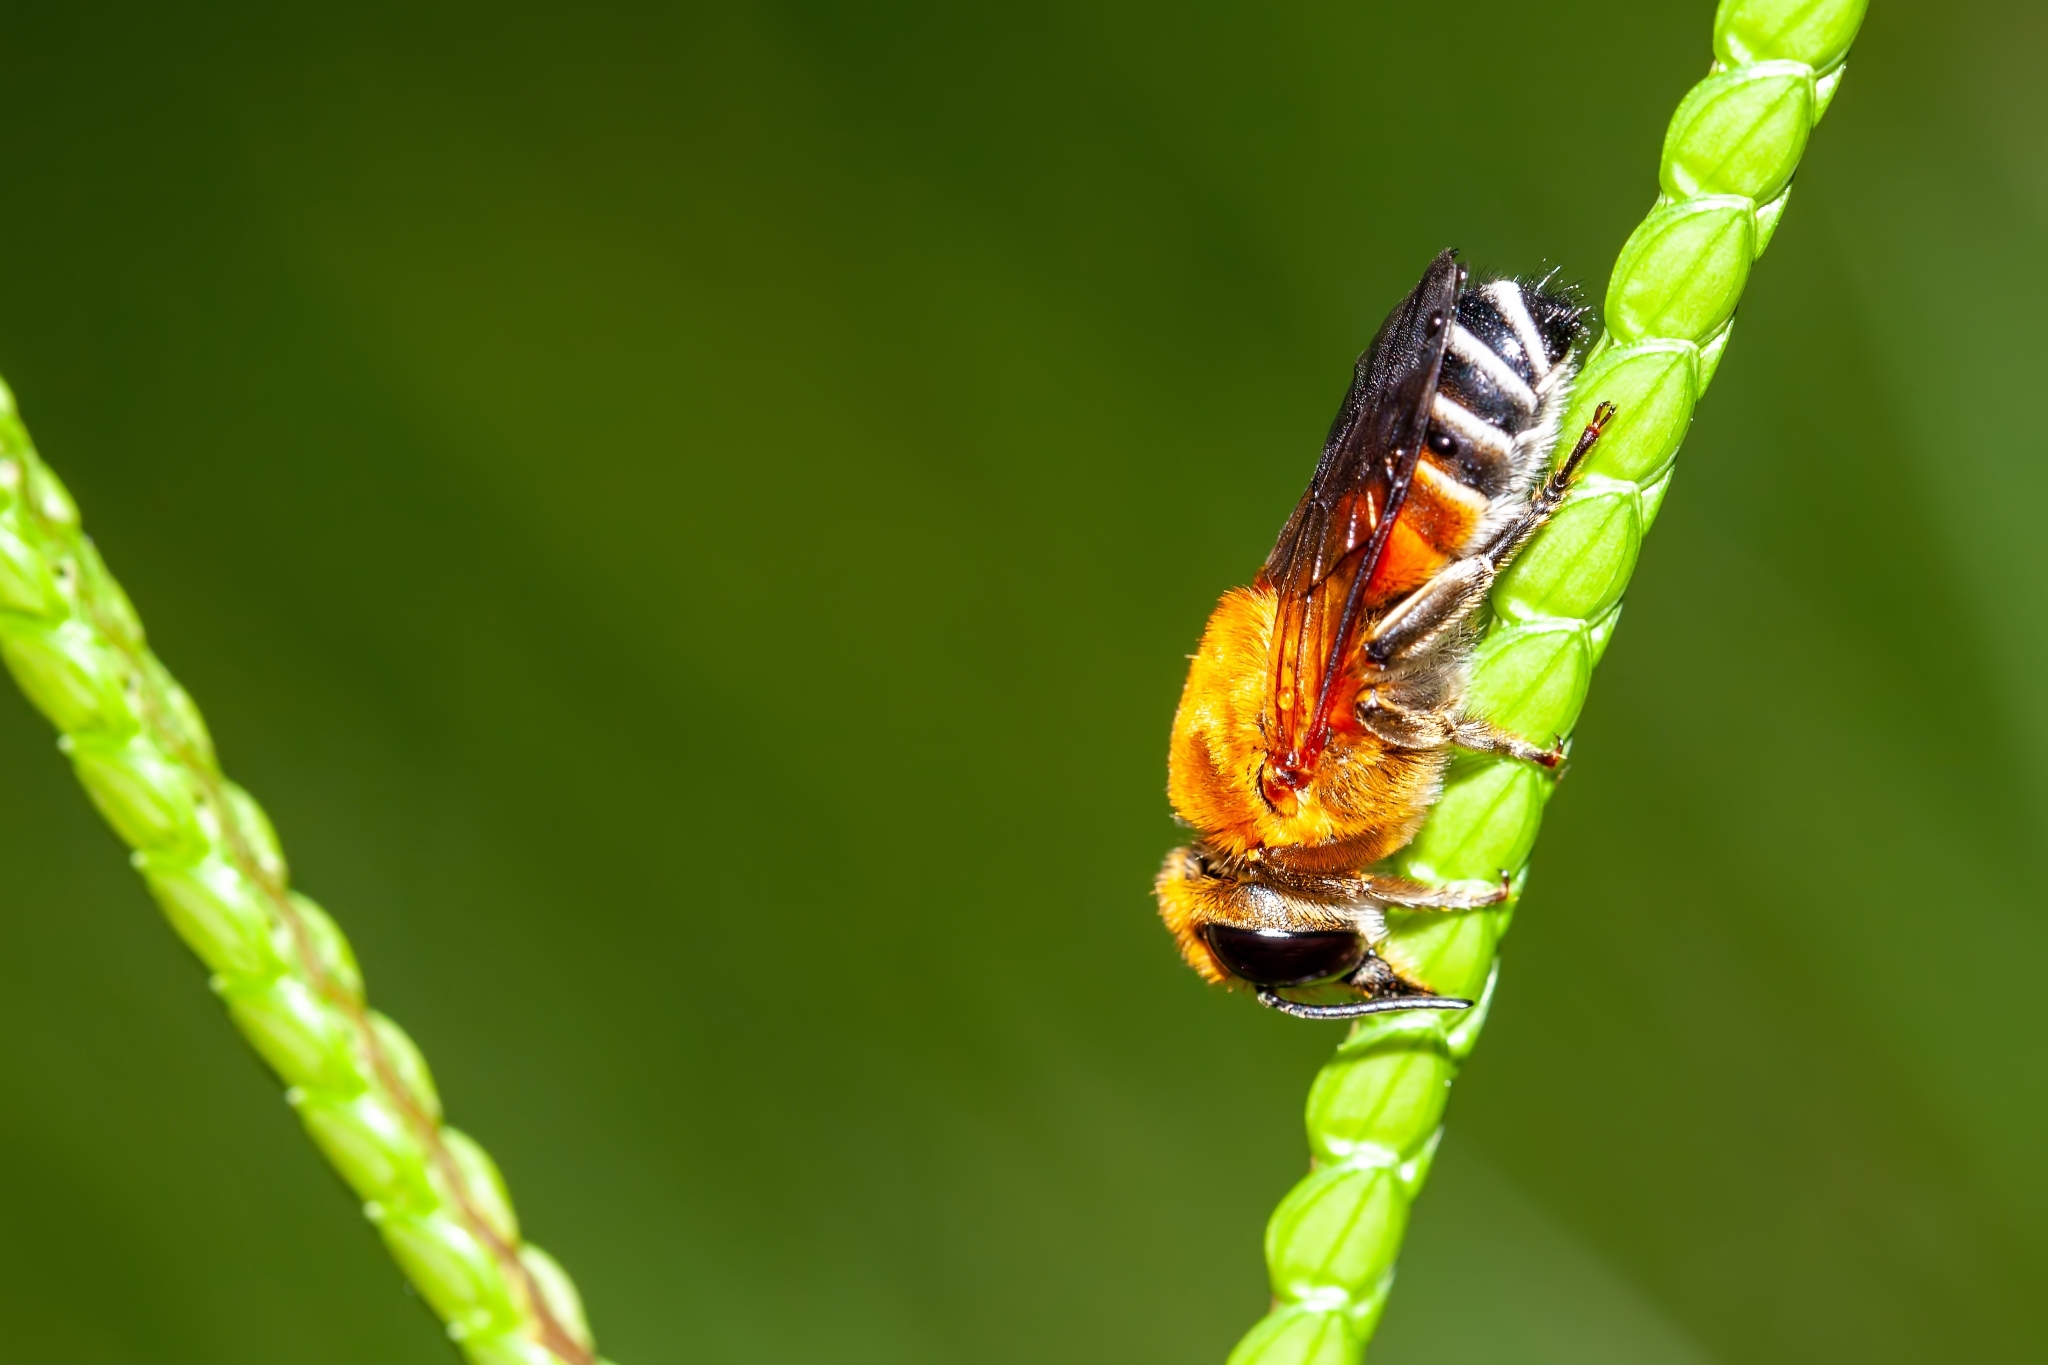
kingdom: Animalia
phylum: Arthropoda
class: Insecta
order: Hymenoptera
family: Megachilidae
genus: Megachile
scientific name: Megachile lanata
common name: Wooly wall bee
